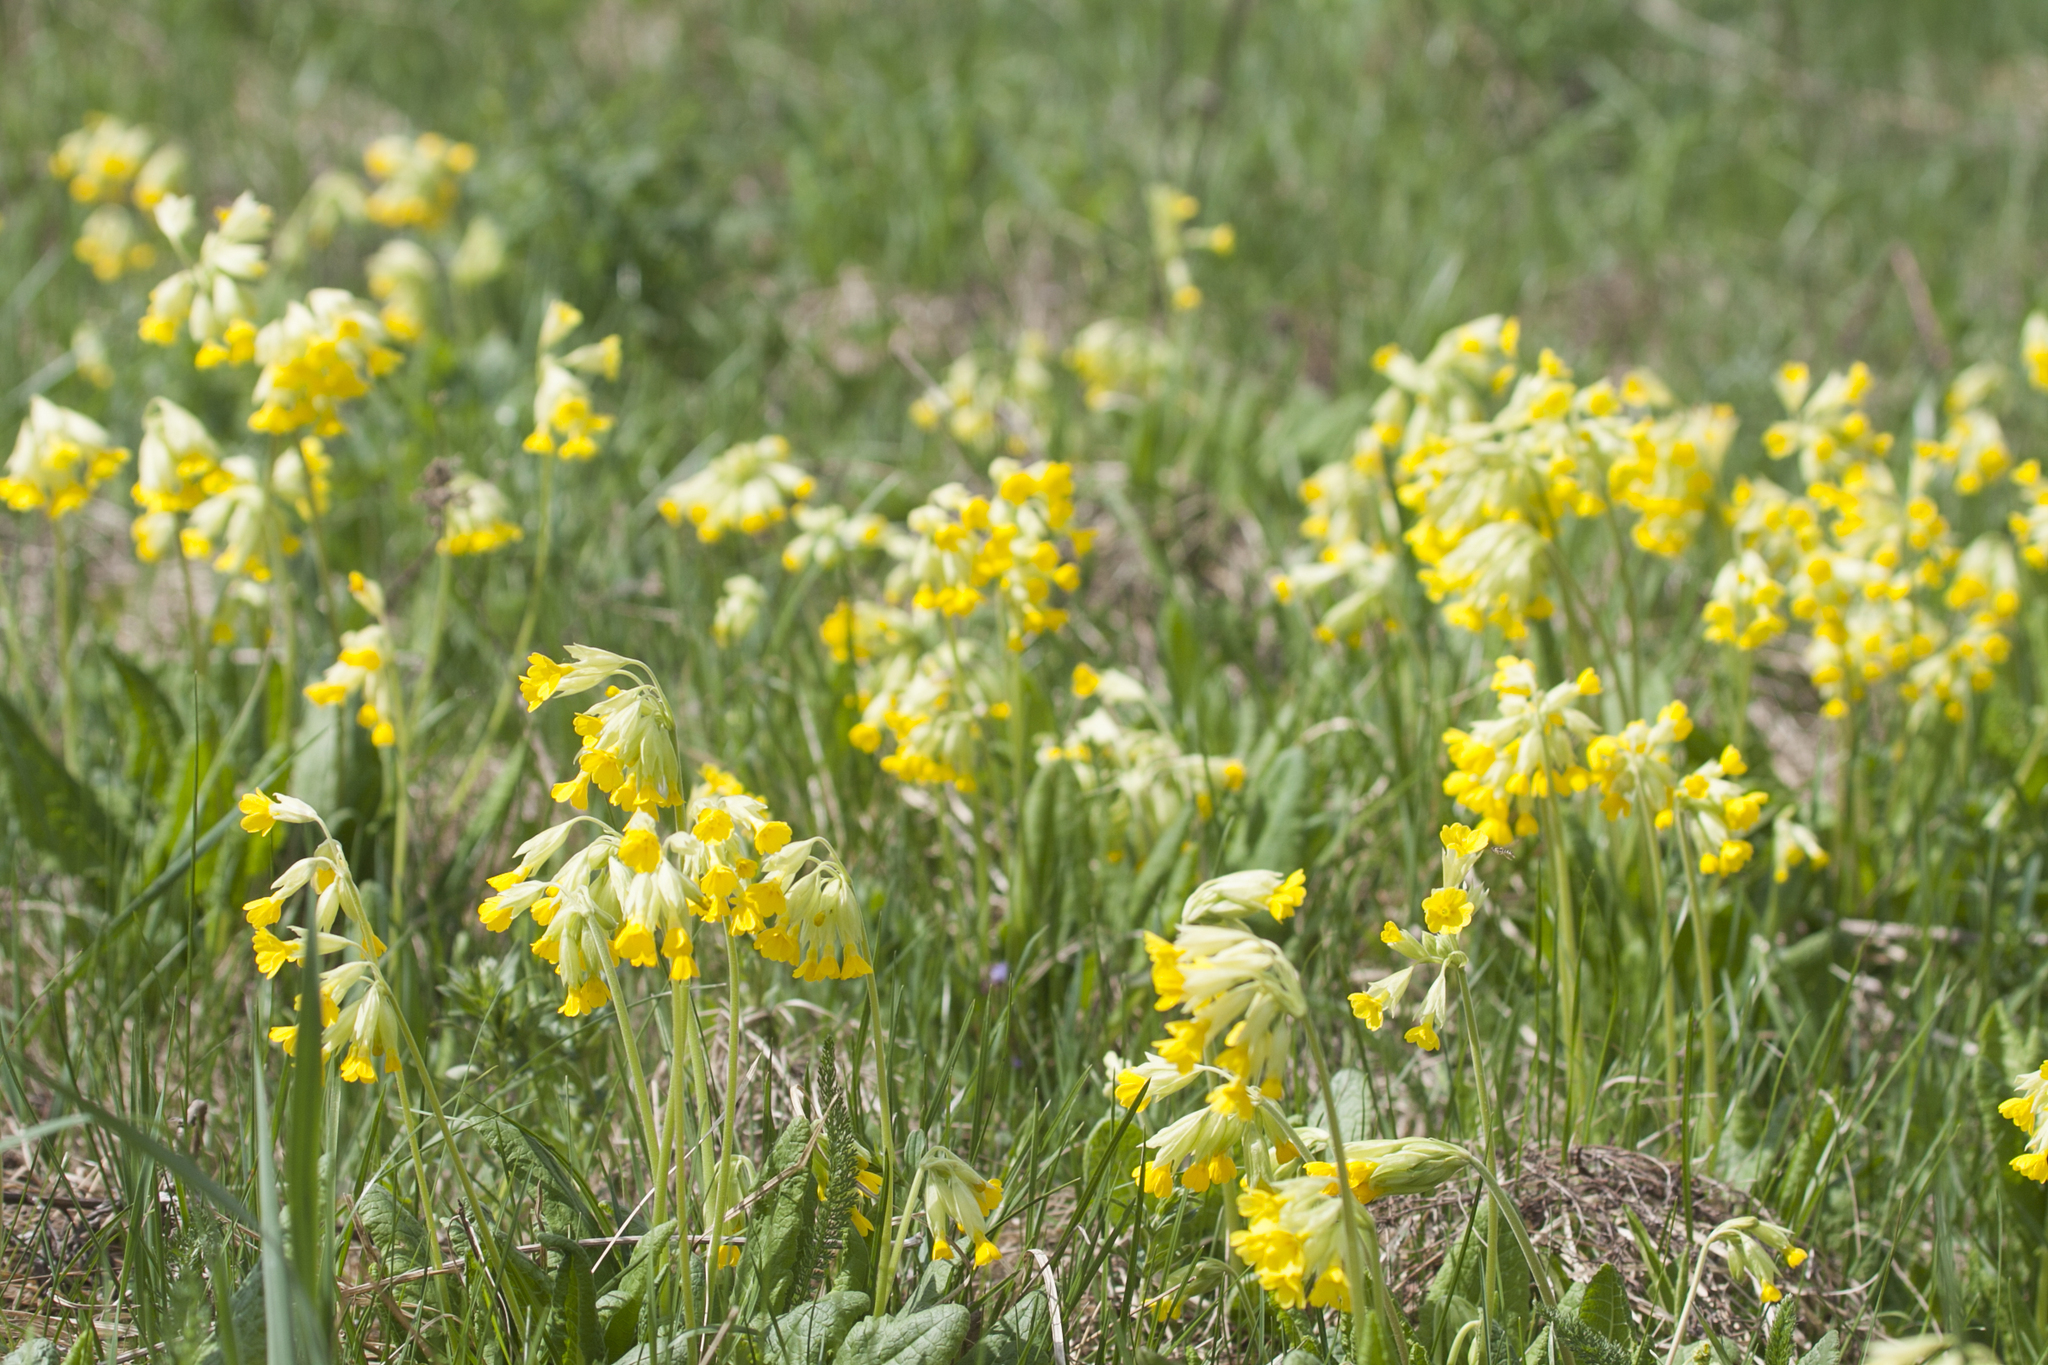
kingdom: Plantae
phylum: Tracheophyta
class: Magnoliopsida
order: Ericales
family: Primulaceae
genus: Primula
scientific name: Primula veris
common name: Cowslip
